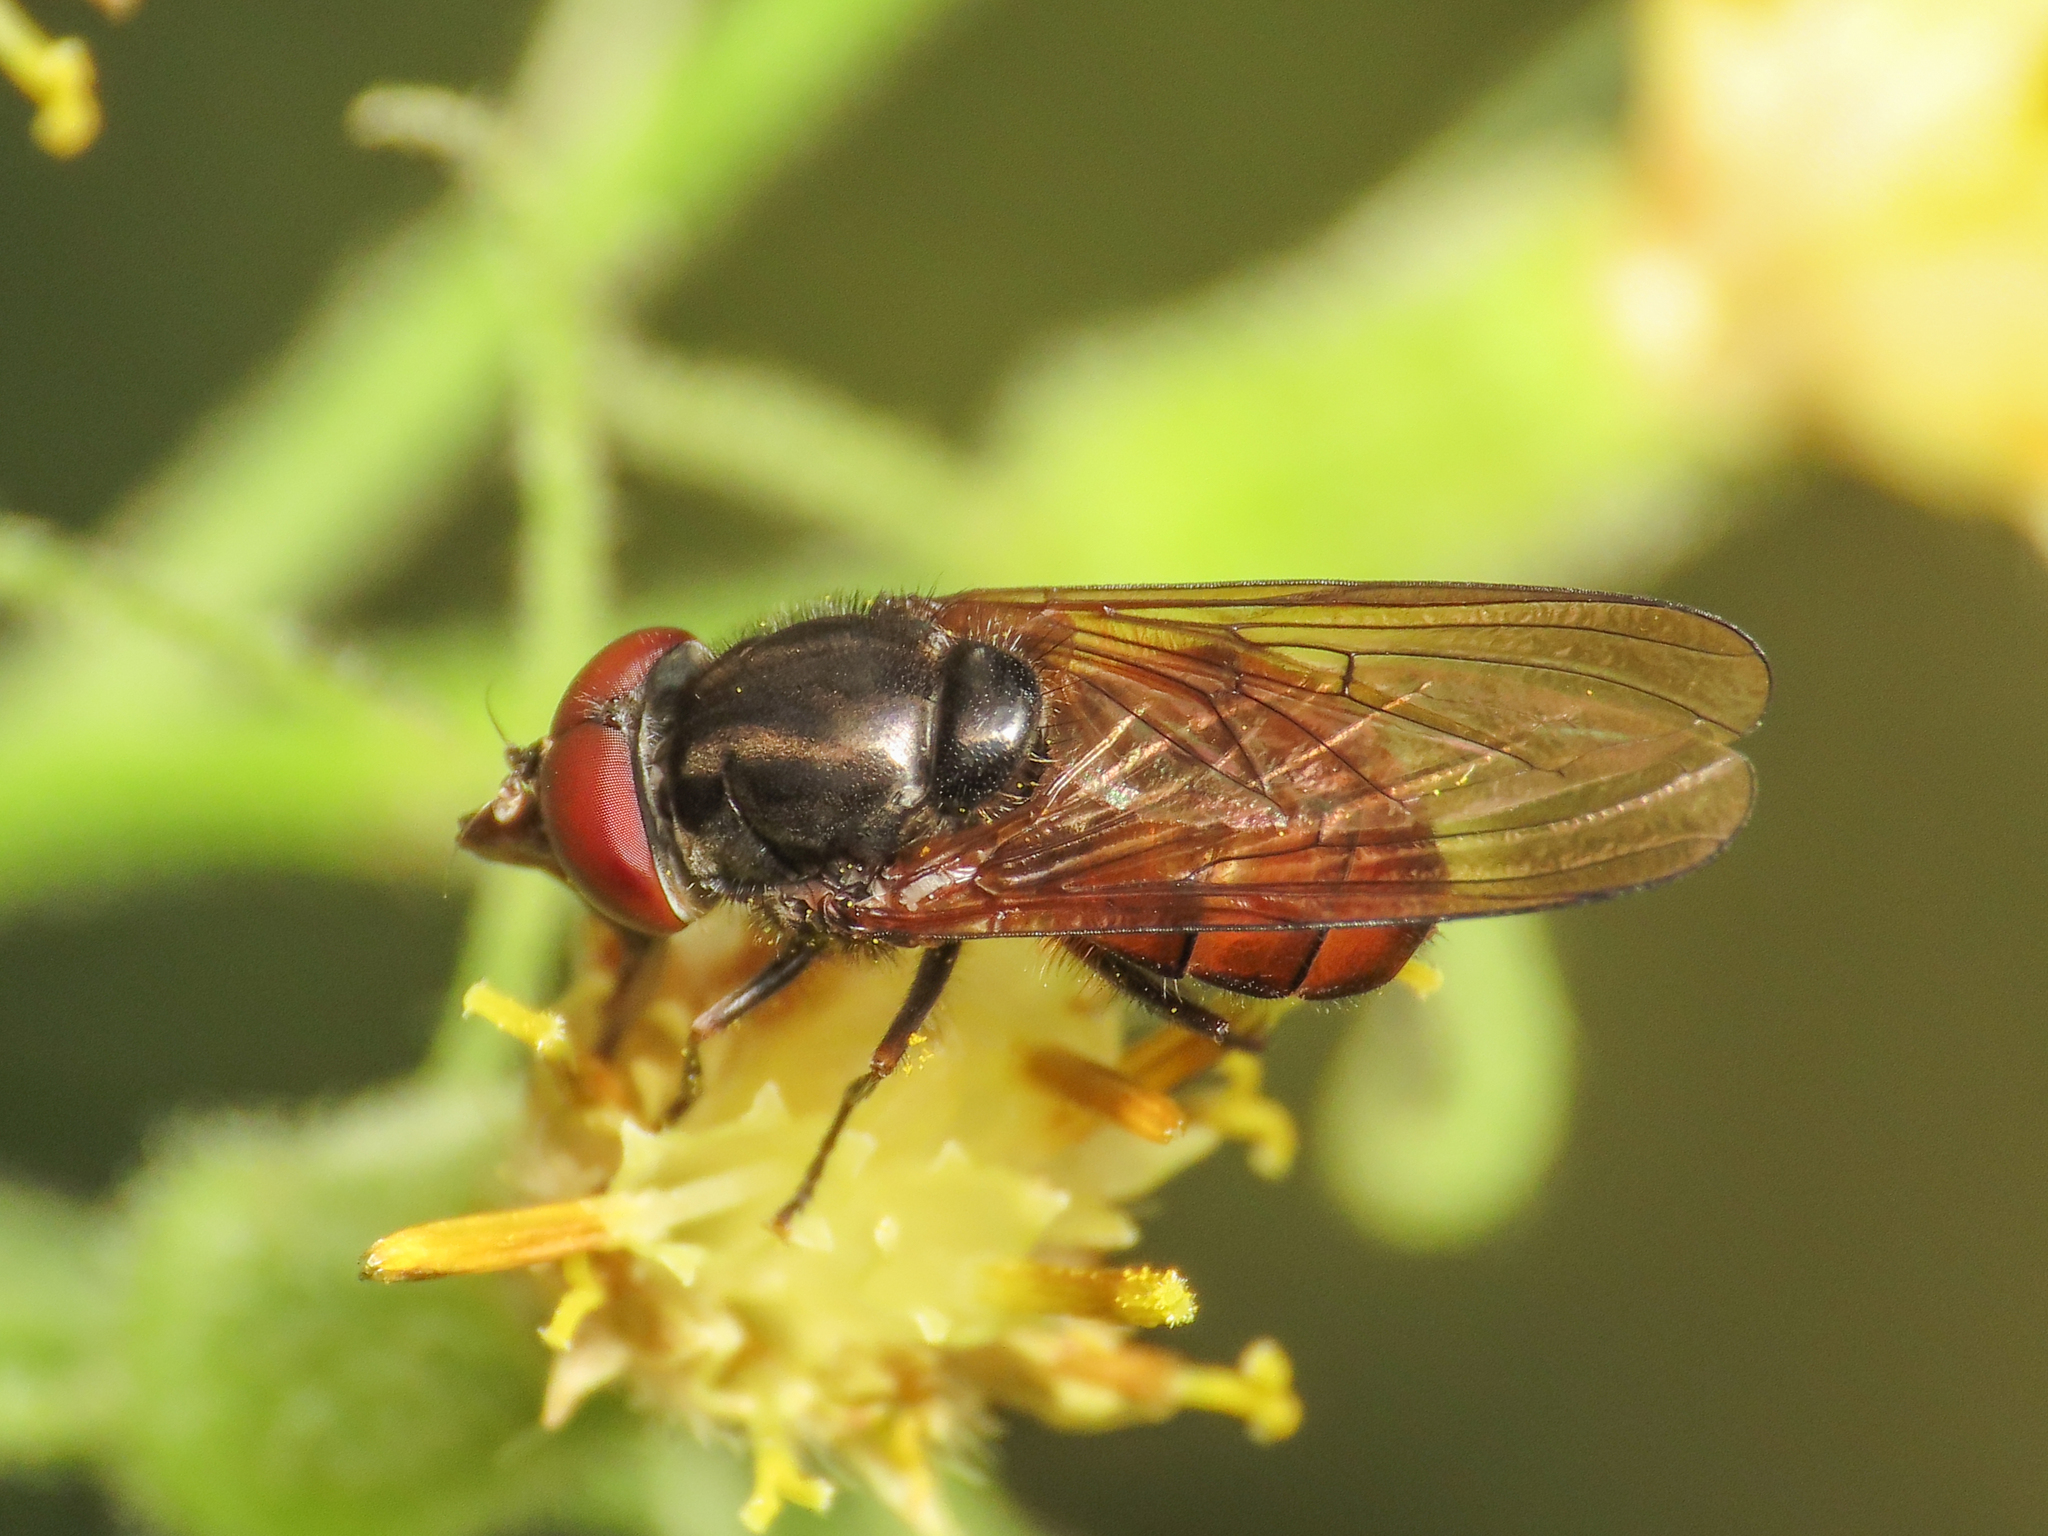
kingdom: Animalia
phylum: Arthropoda
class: Insecta
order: Diptera
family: Syrphidae
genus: Rhingia
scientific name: Rhingia campestris
